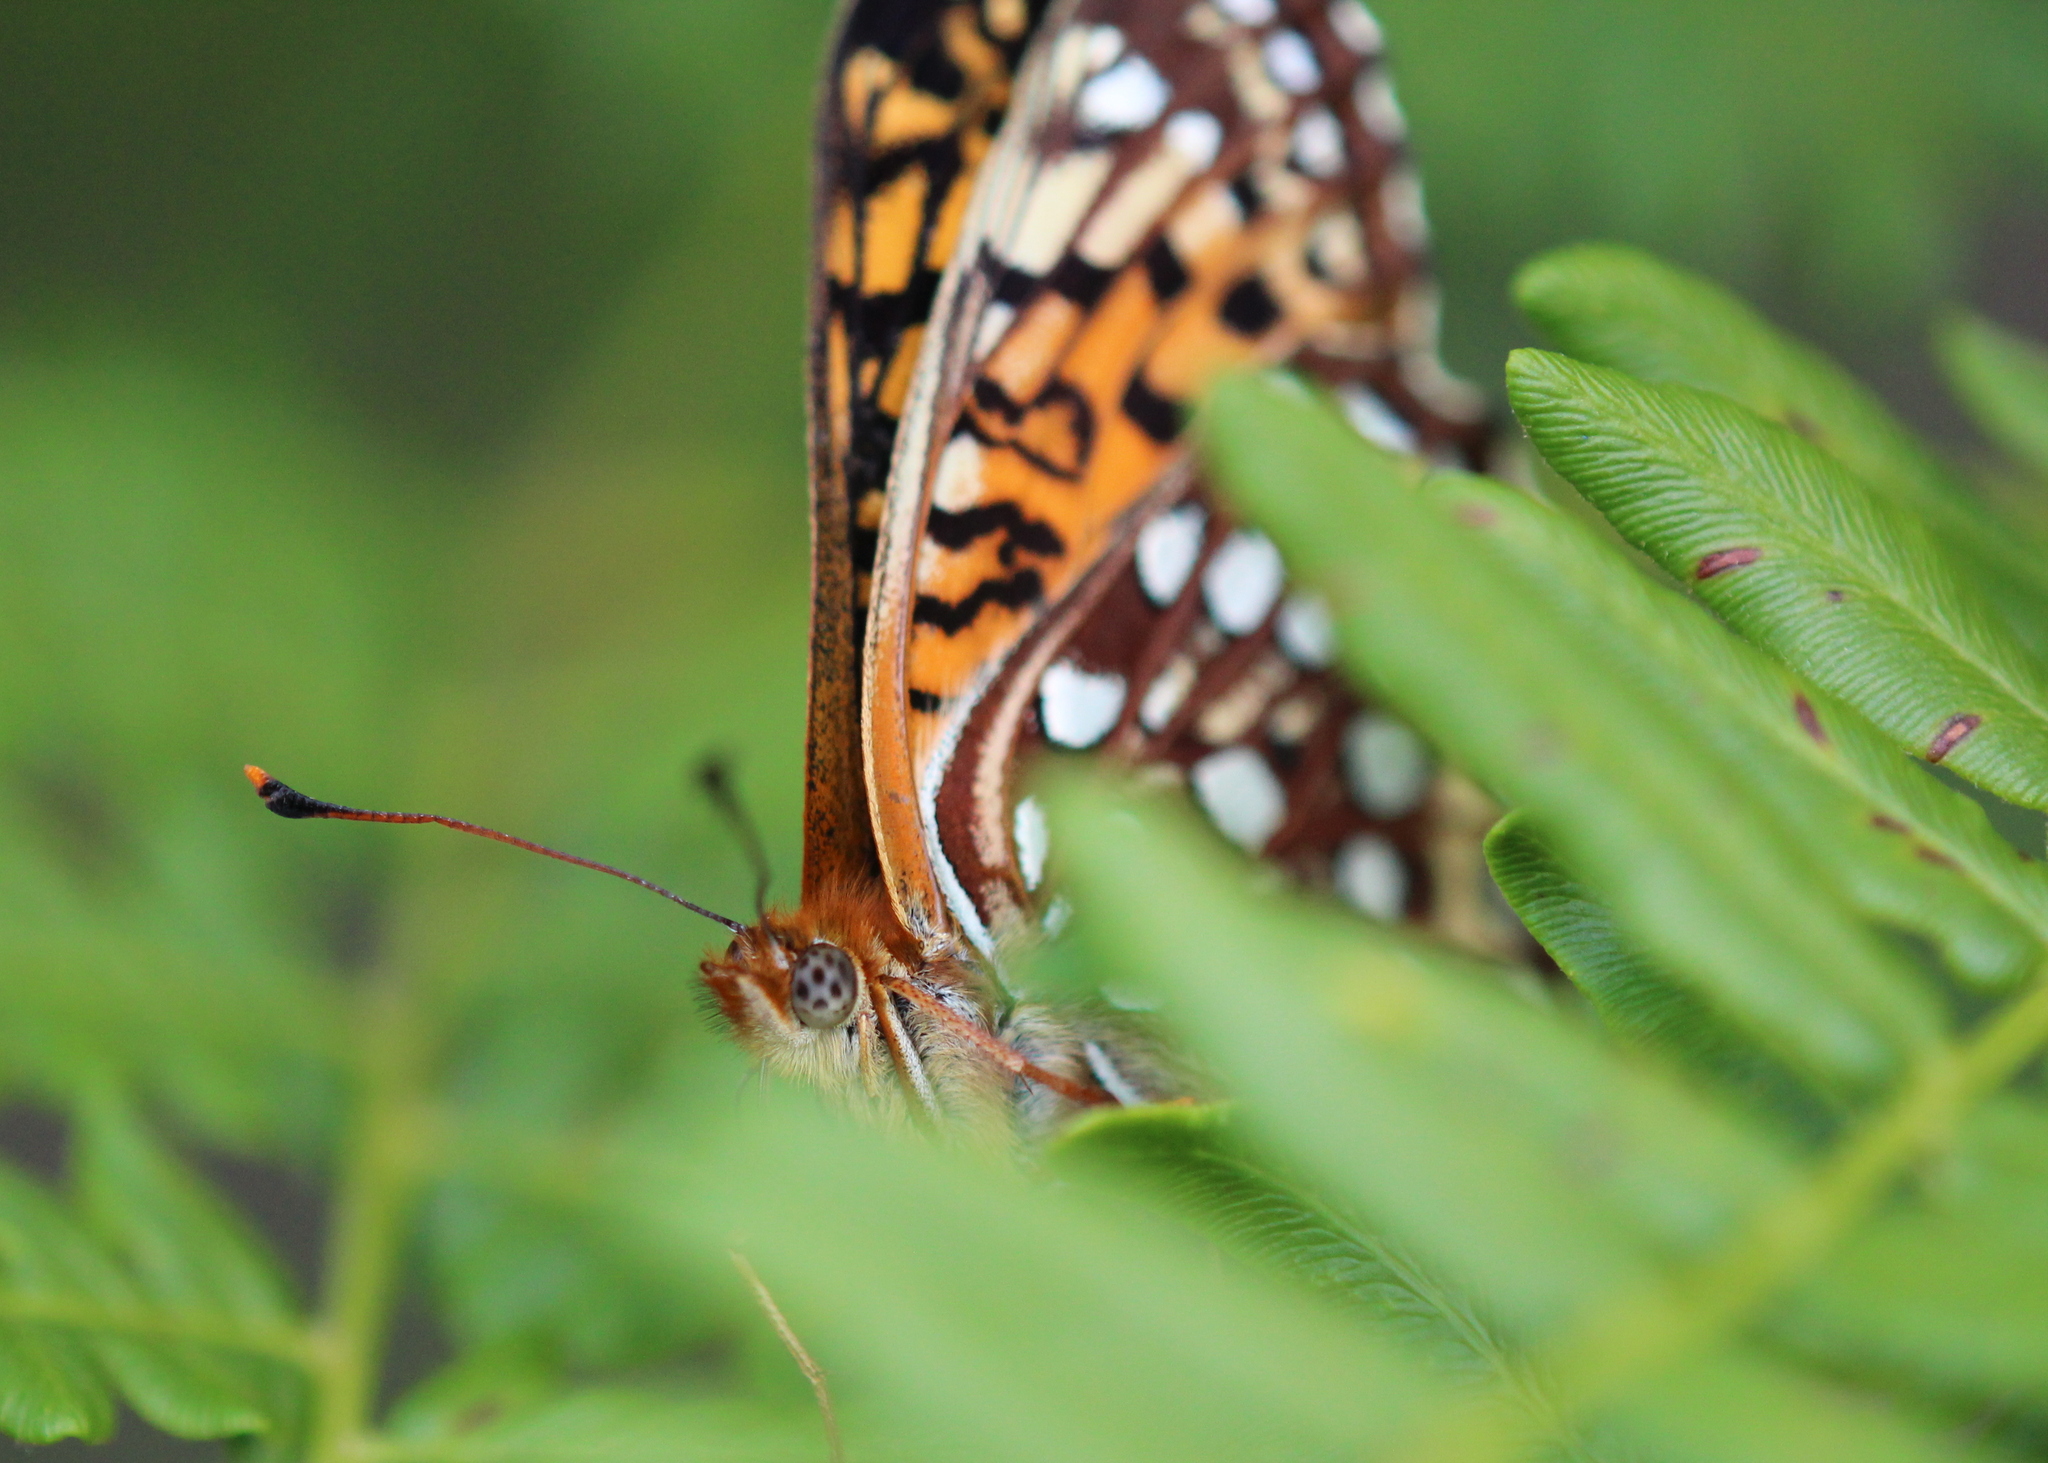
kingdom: Animalia
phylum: Arthropoda
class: Insecta
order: Lepidoptera
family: Nymphalidae
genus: Speyeria
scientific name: Speyeria atlantis
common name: Atlantis fritillary
